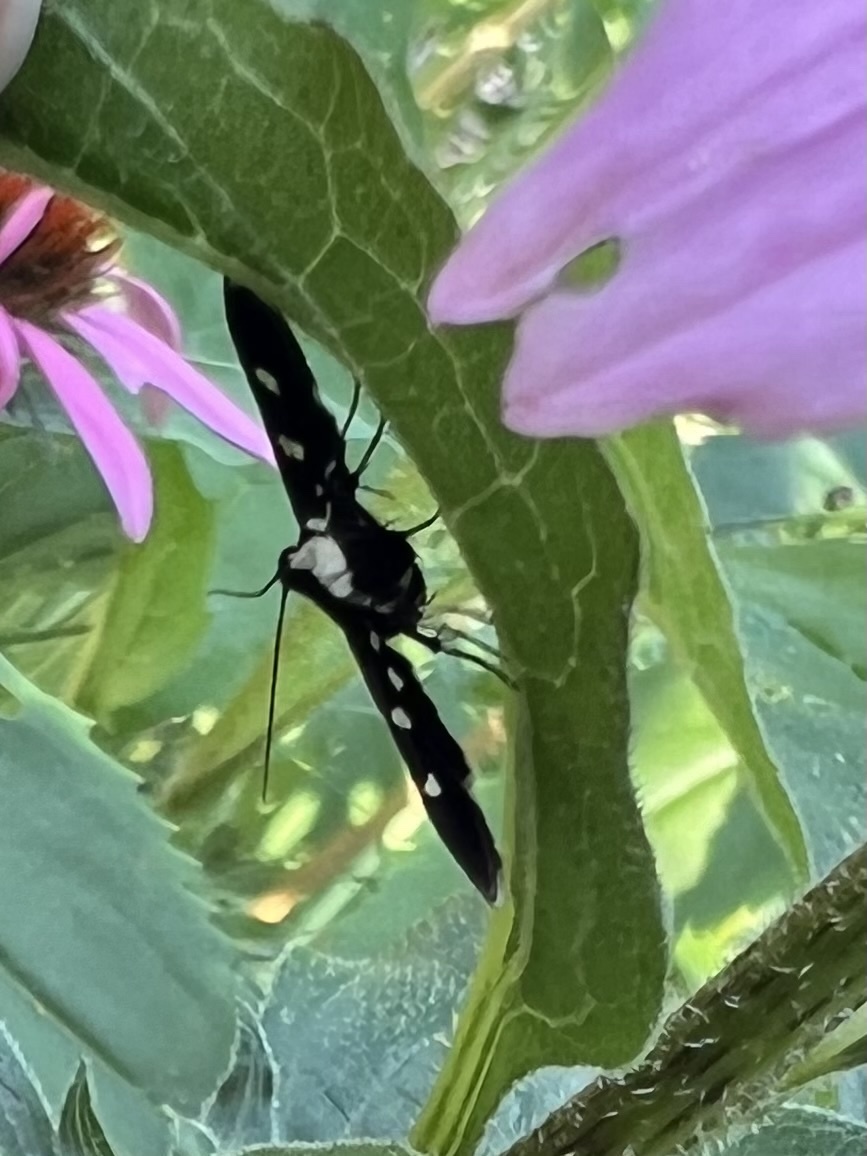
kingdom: Animalia
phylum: Arthropoda
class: Insecta
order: Lepidoptera
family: Crambidae
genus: Desmia
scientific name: Desmia
